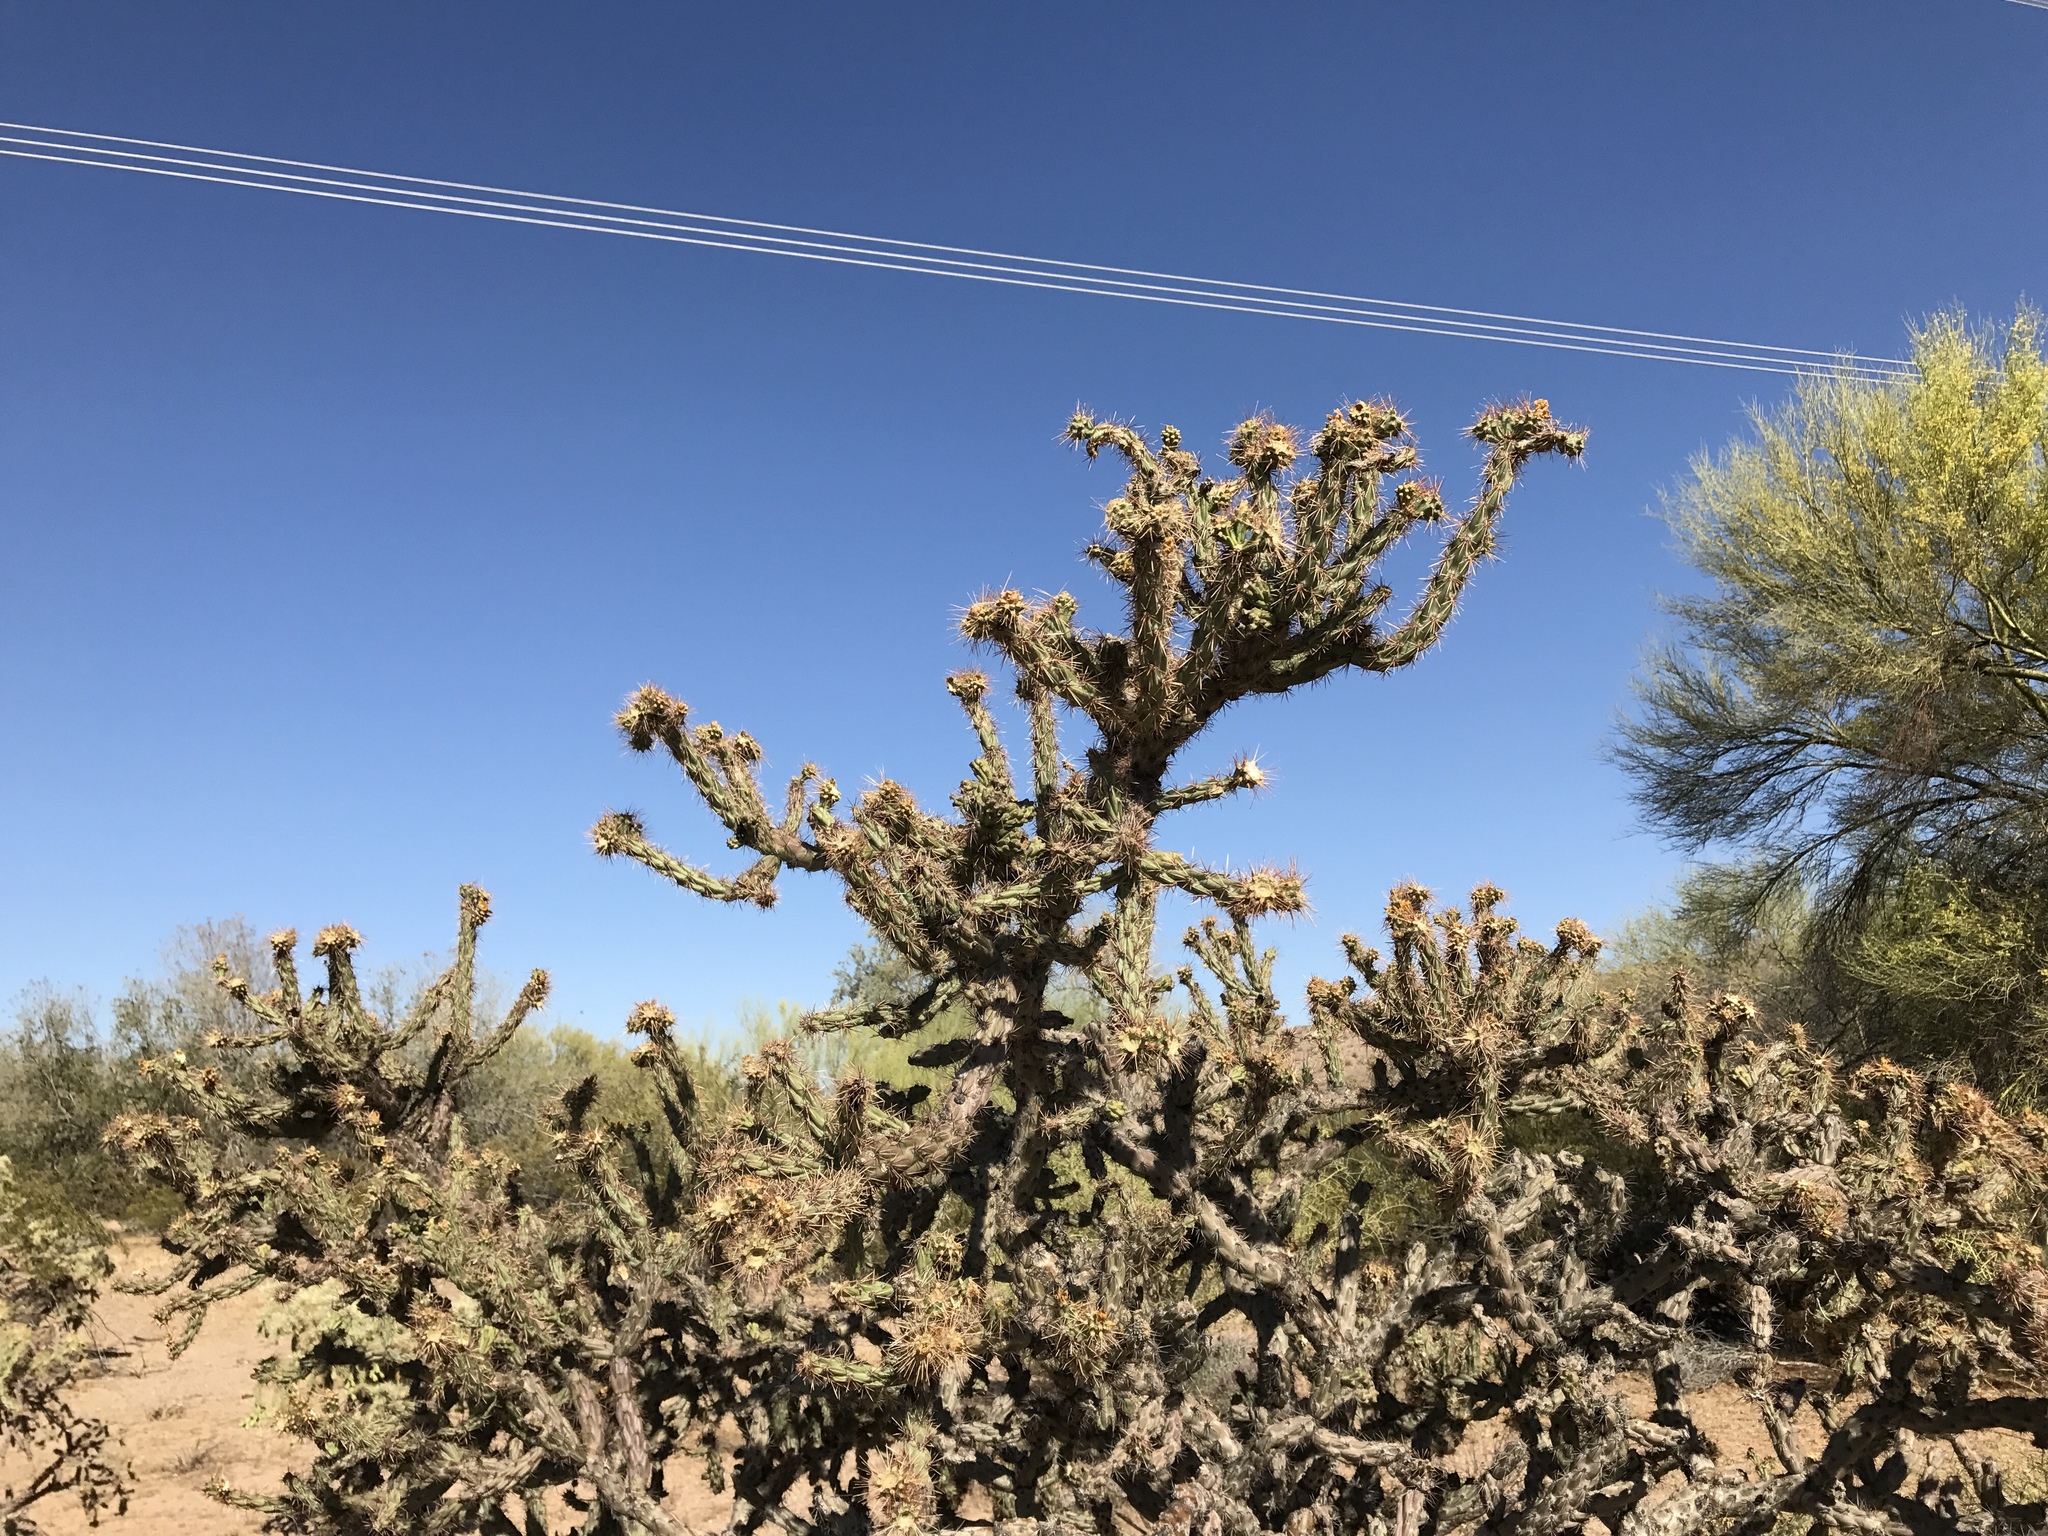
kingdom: Plantae
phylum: Tracheophyta
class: Magnoliopsida
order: Caryophyllales
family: Cactaceae
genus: Cylindropuntia
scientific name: Cylindropuntia thurberi
